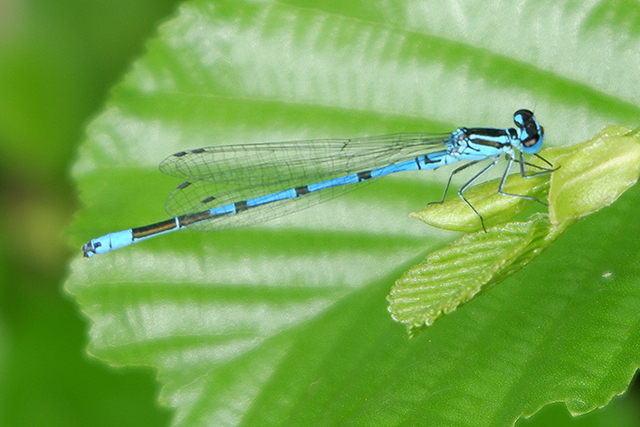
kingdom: Animalia
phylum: Arthropoda
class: Insecta
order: Odonata
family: Coenagrionidae
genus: Coenagrion
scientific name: Coenagrion puella
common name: Azure damselfly
